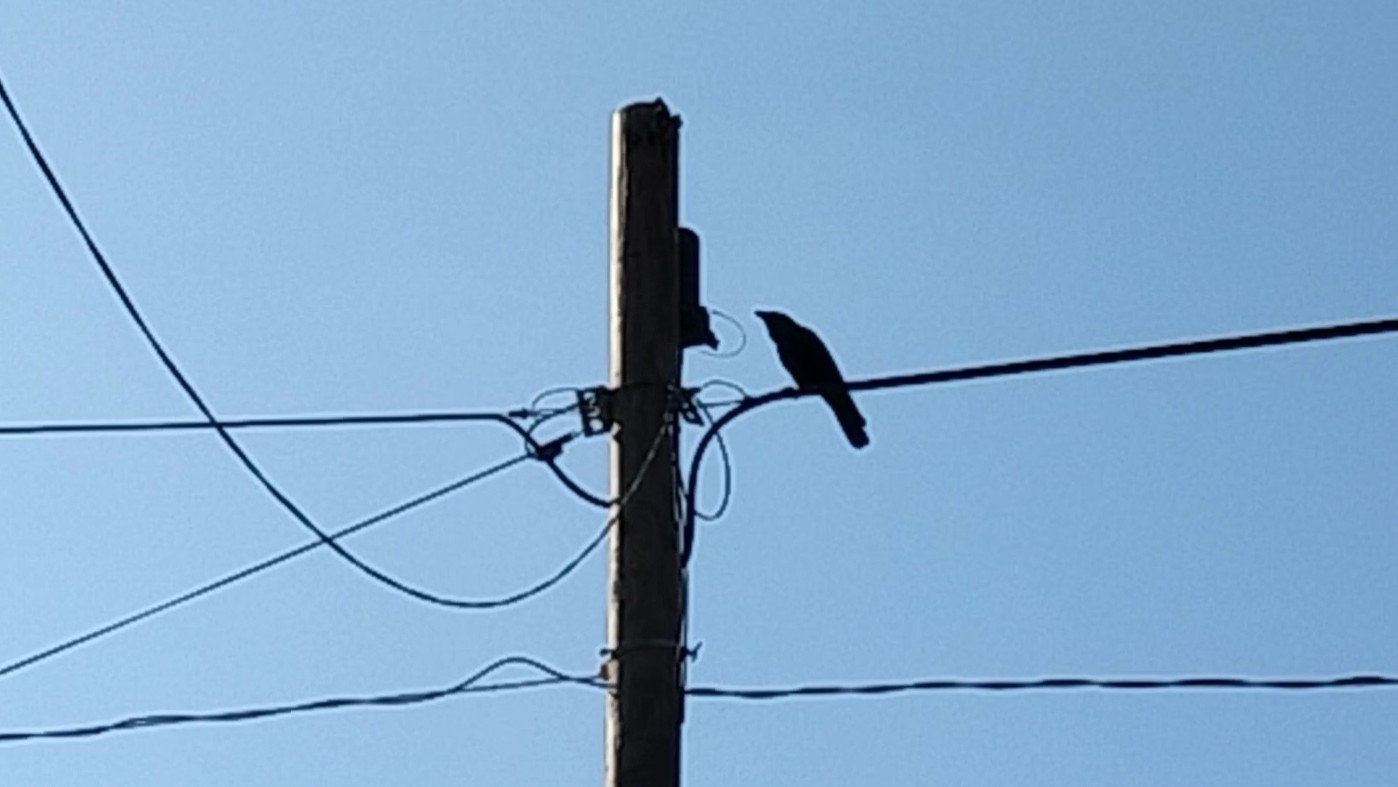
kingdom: Animalia
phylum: Chordata
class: Aves
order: Passeriformes
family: Corvidae
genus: Corvus
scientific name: Corvus imparatus
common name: Tamaulipas crow
